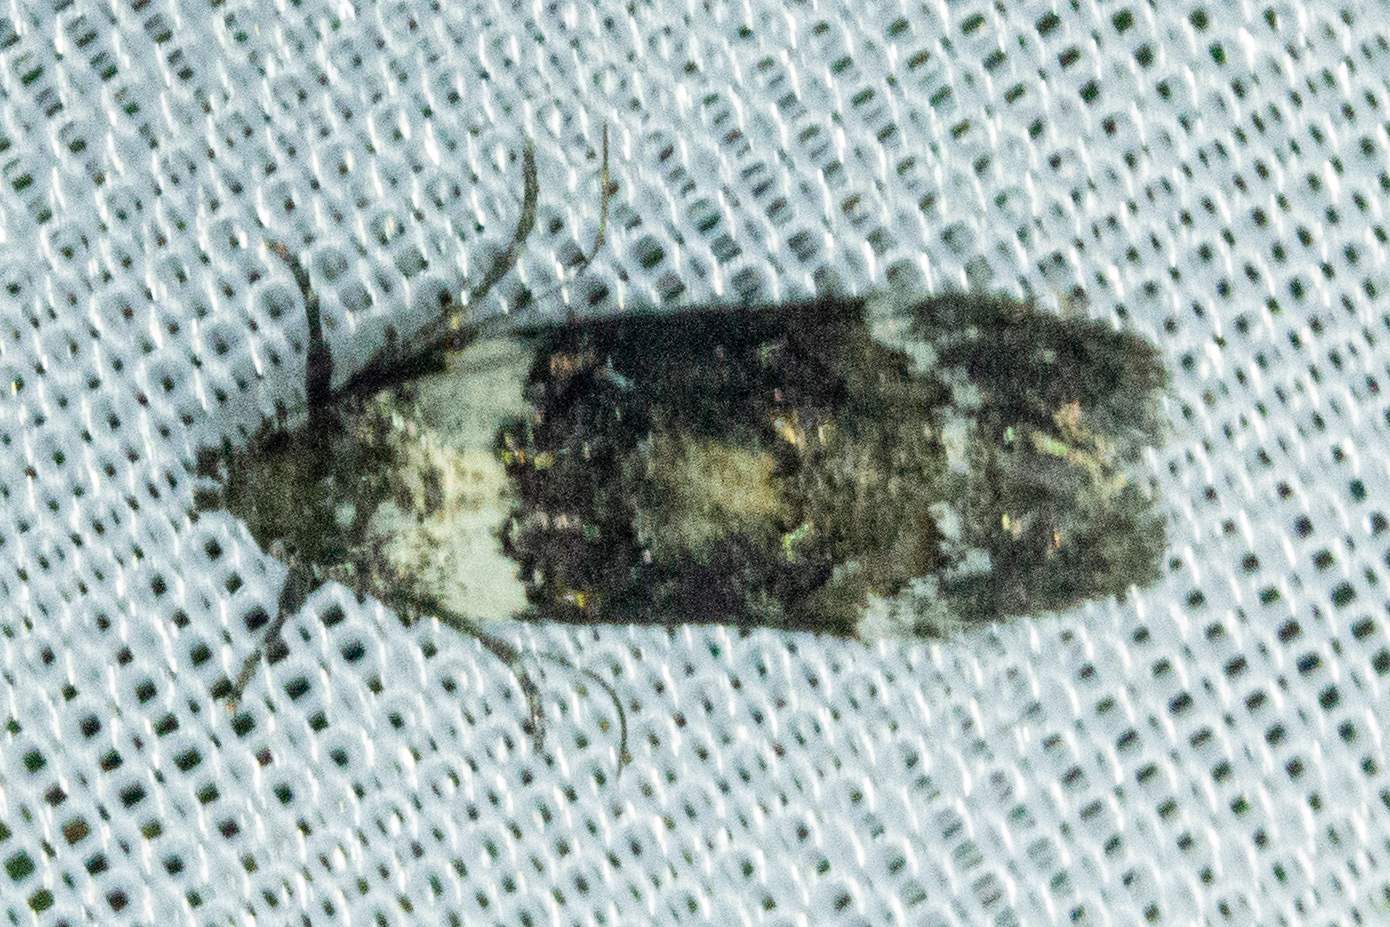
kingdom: Animalia
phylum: Arthropoda
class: Insecta
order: Lepidoptera
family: Oecophoridae
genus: Trachypepla
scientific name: Trachypepla conspicuella
